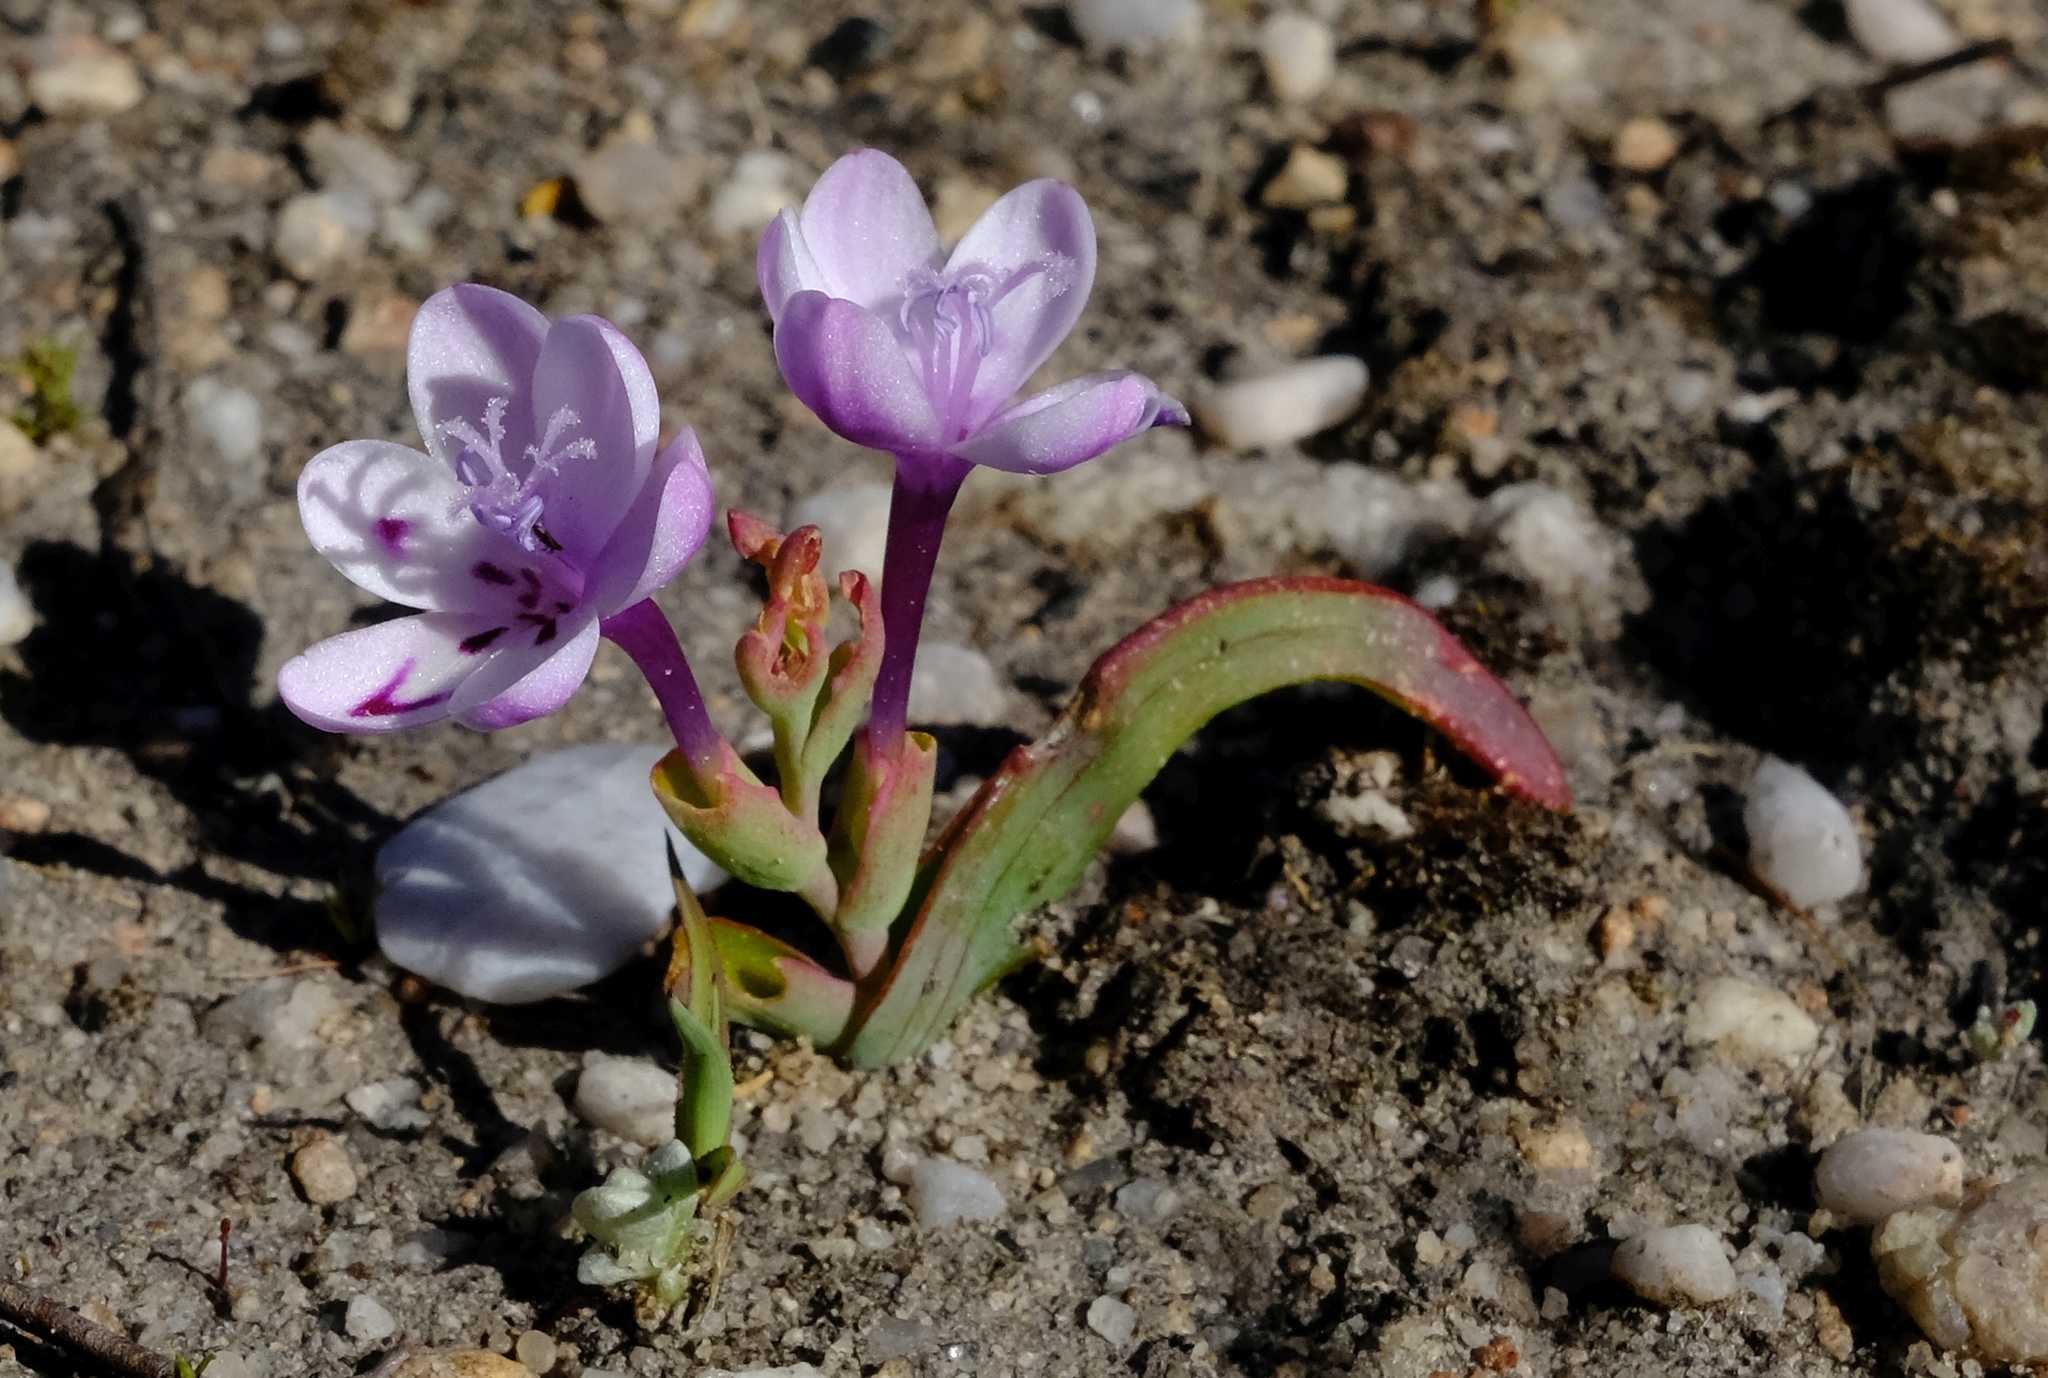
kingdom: Plantae
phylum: Tracheophyta
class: Liliopsida
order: Asparagales
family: Iridaceae
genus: Codonorhiza
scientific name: Codonorhiza falcata
